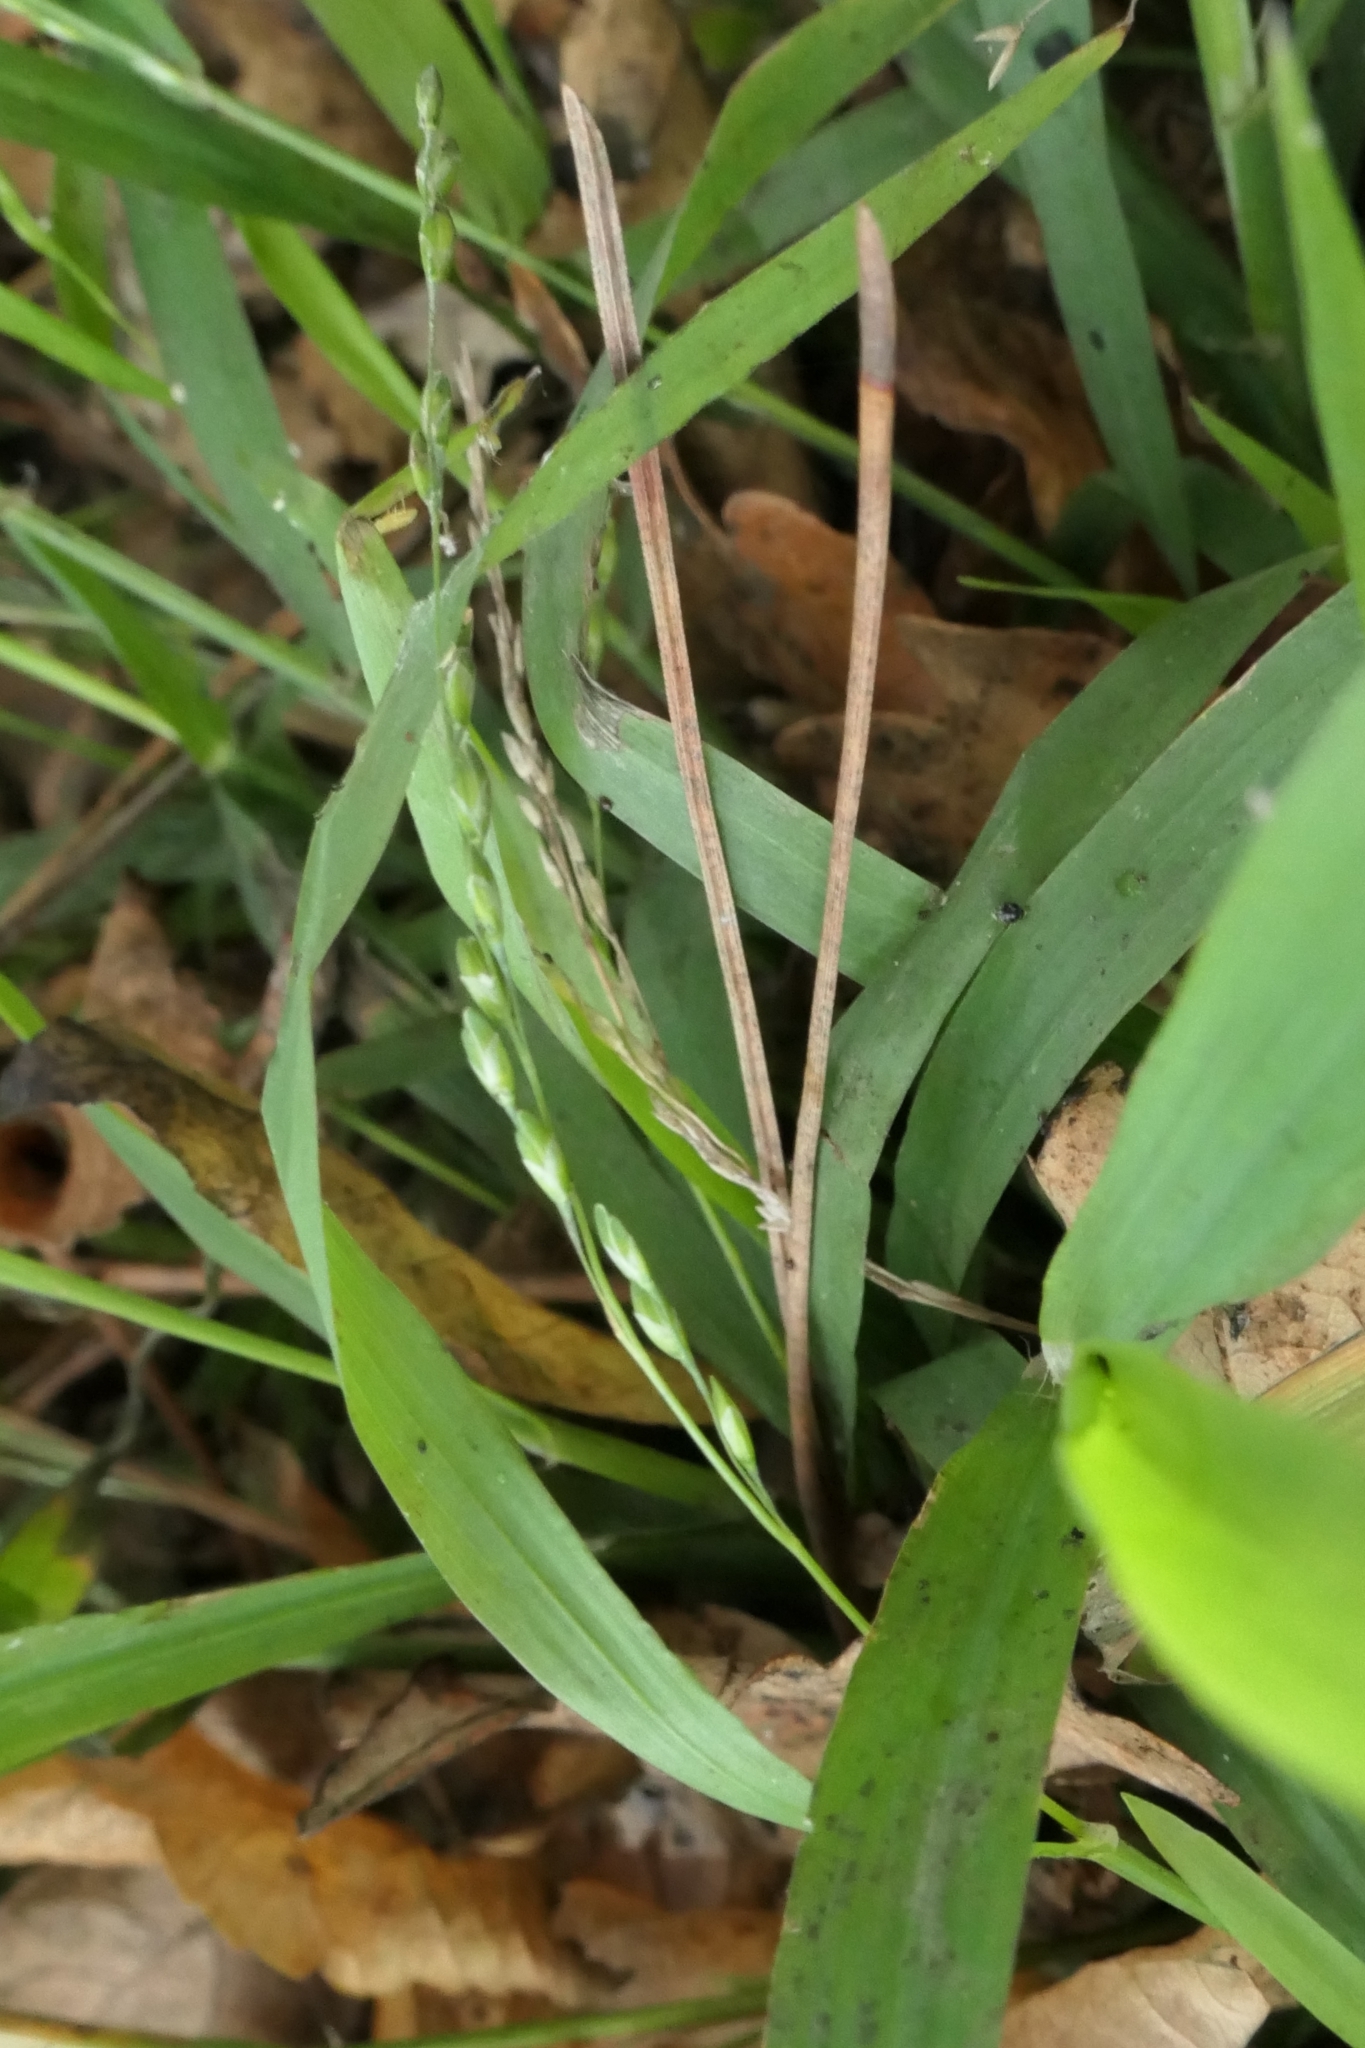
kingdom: Plantae
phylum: Tracheophyta
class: Liliopsida
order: Poales
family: Poaceae
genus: Ehrharta
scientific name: Ehrharta erecta
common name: Panic veldtgrass
